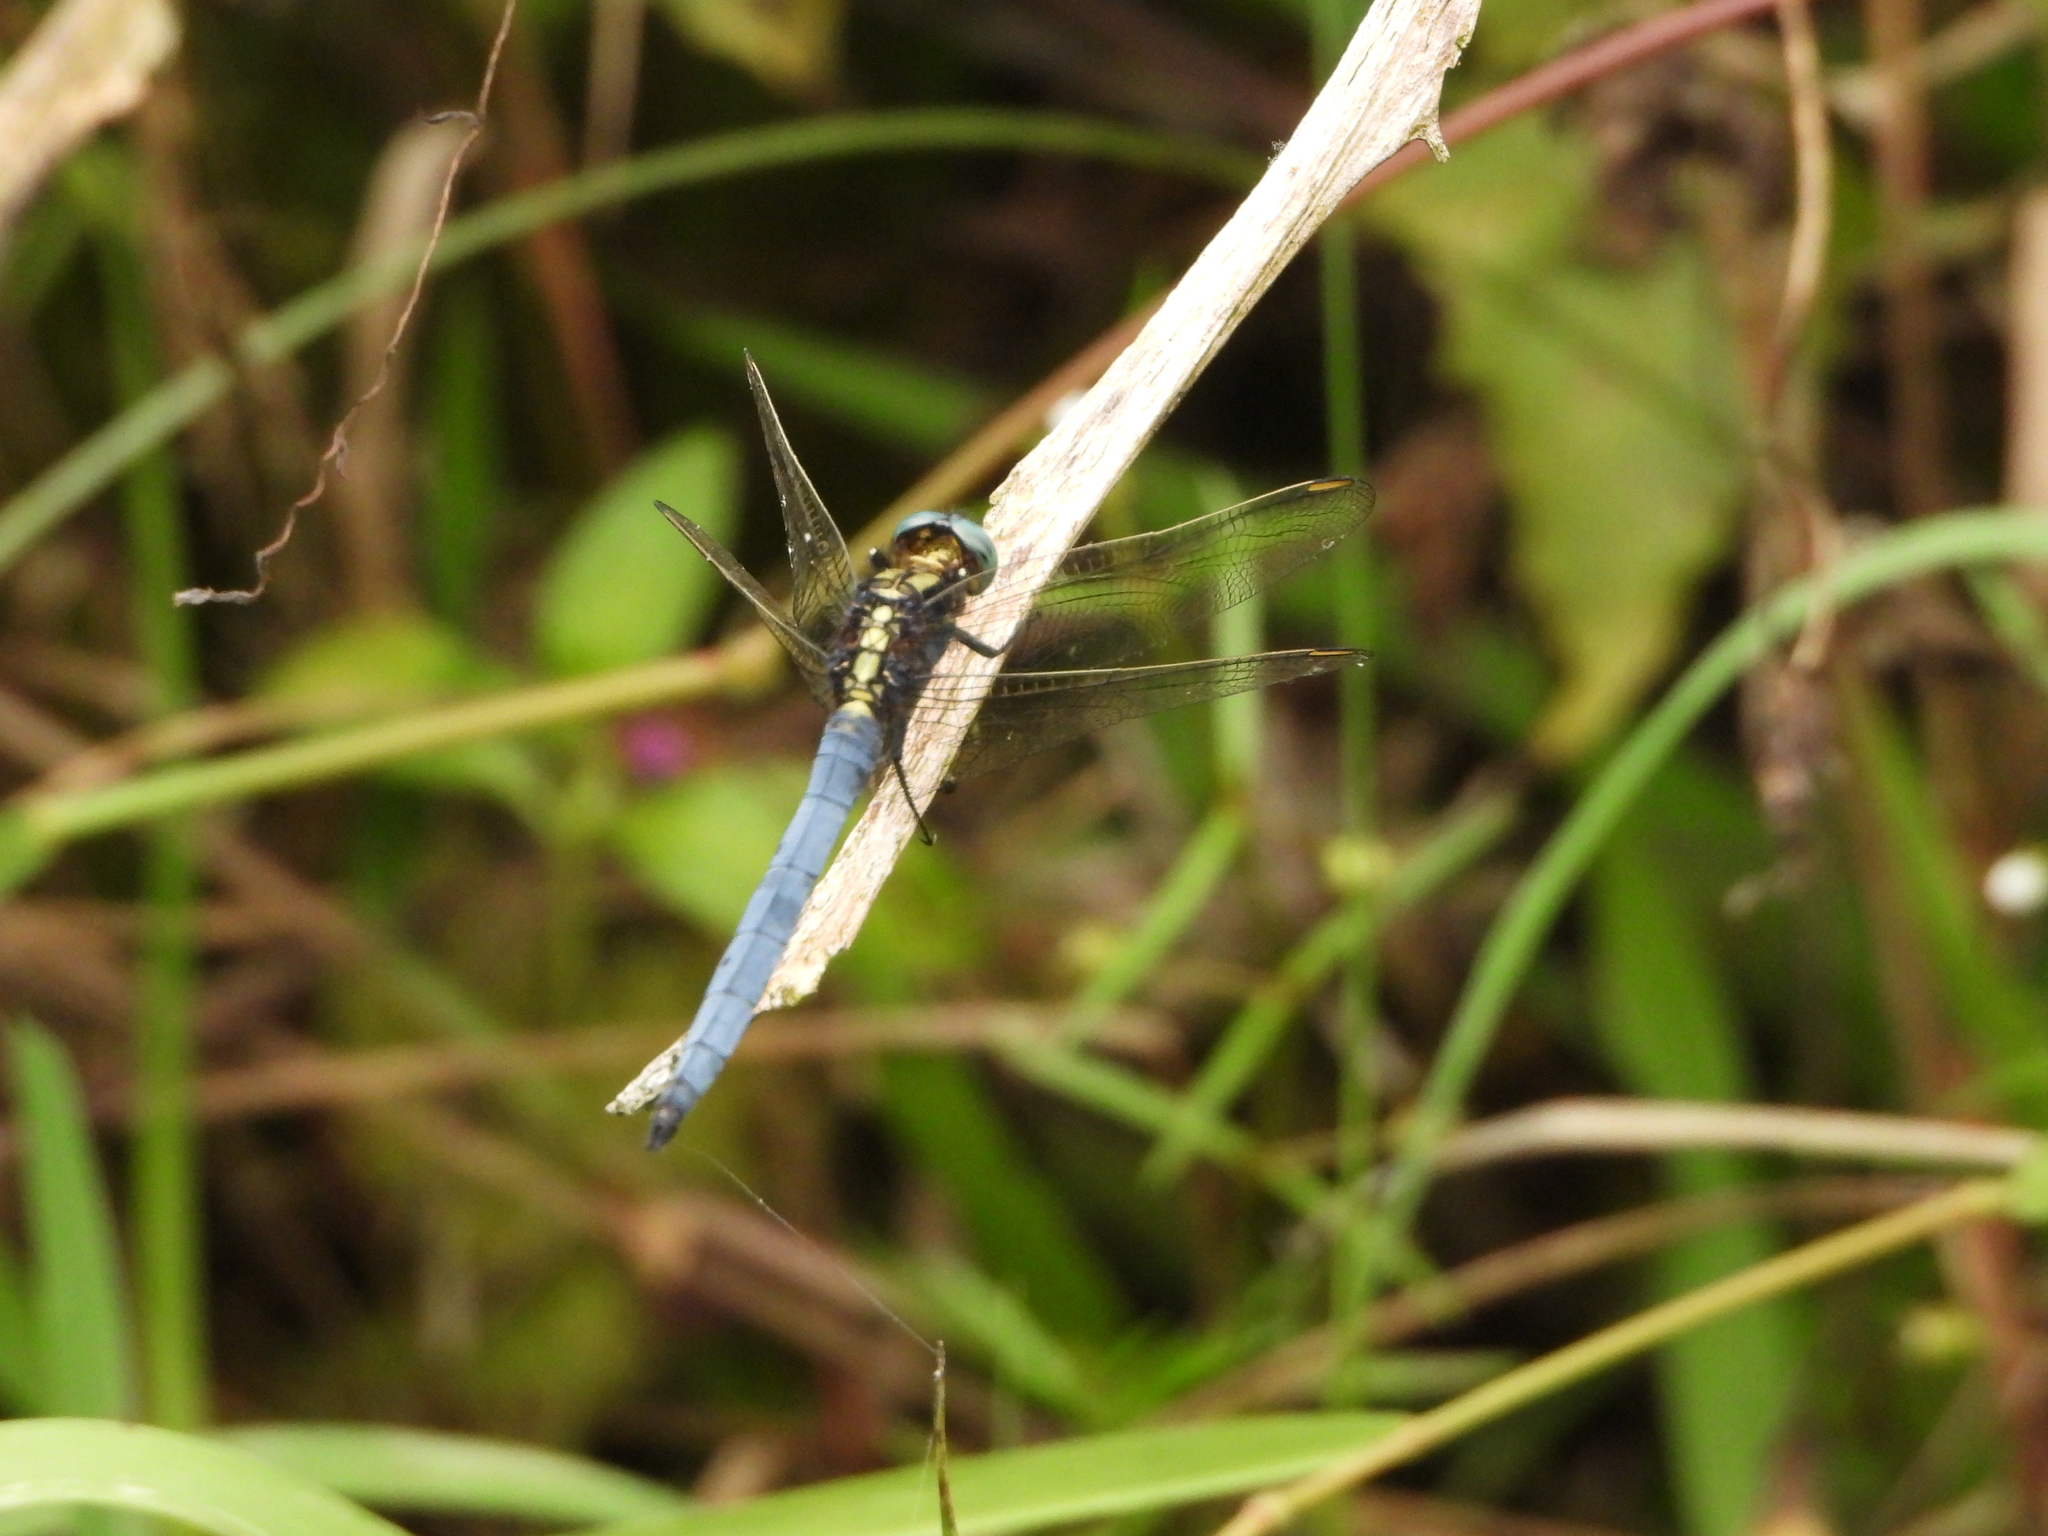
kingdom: Animalia
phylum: Arthropoda
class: Insecta
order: Odonata
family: Libellulidae
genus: Orthetrum
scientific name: Orthetrum luzonicum
